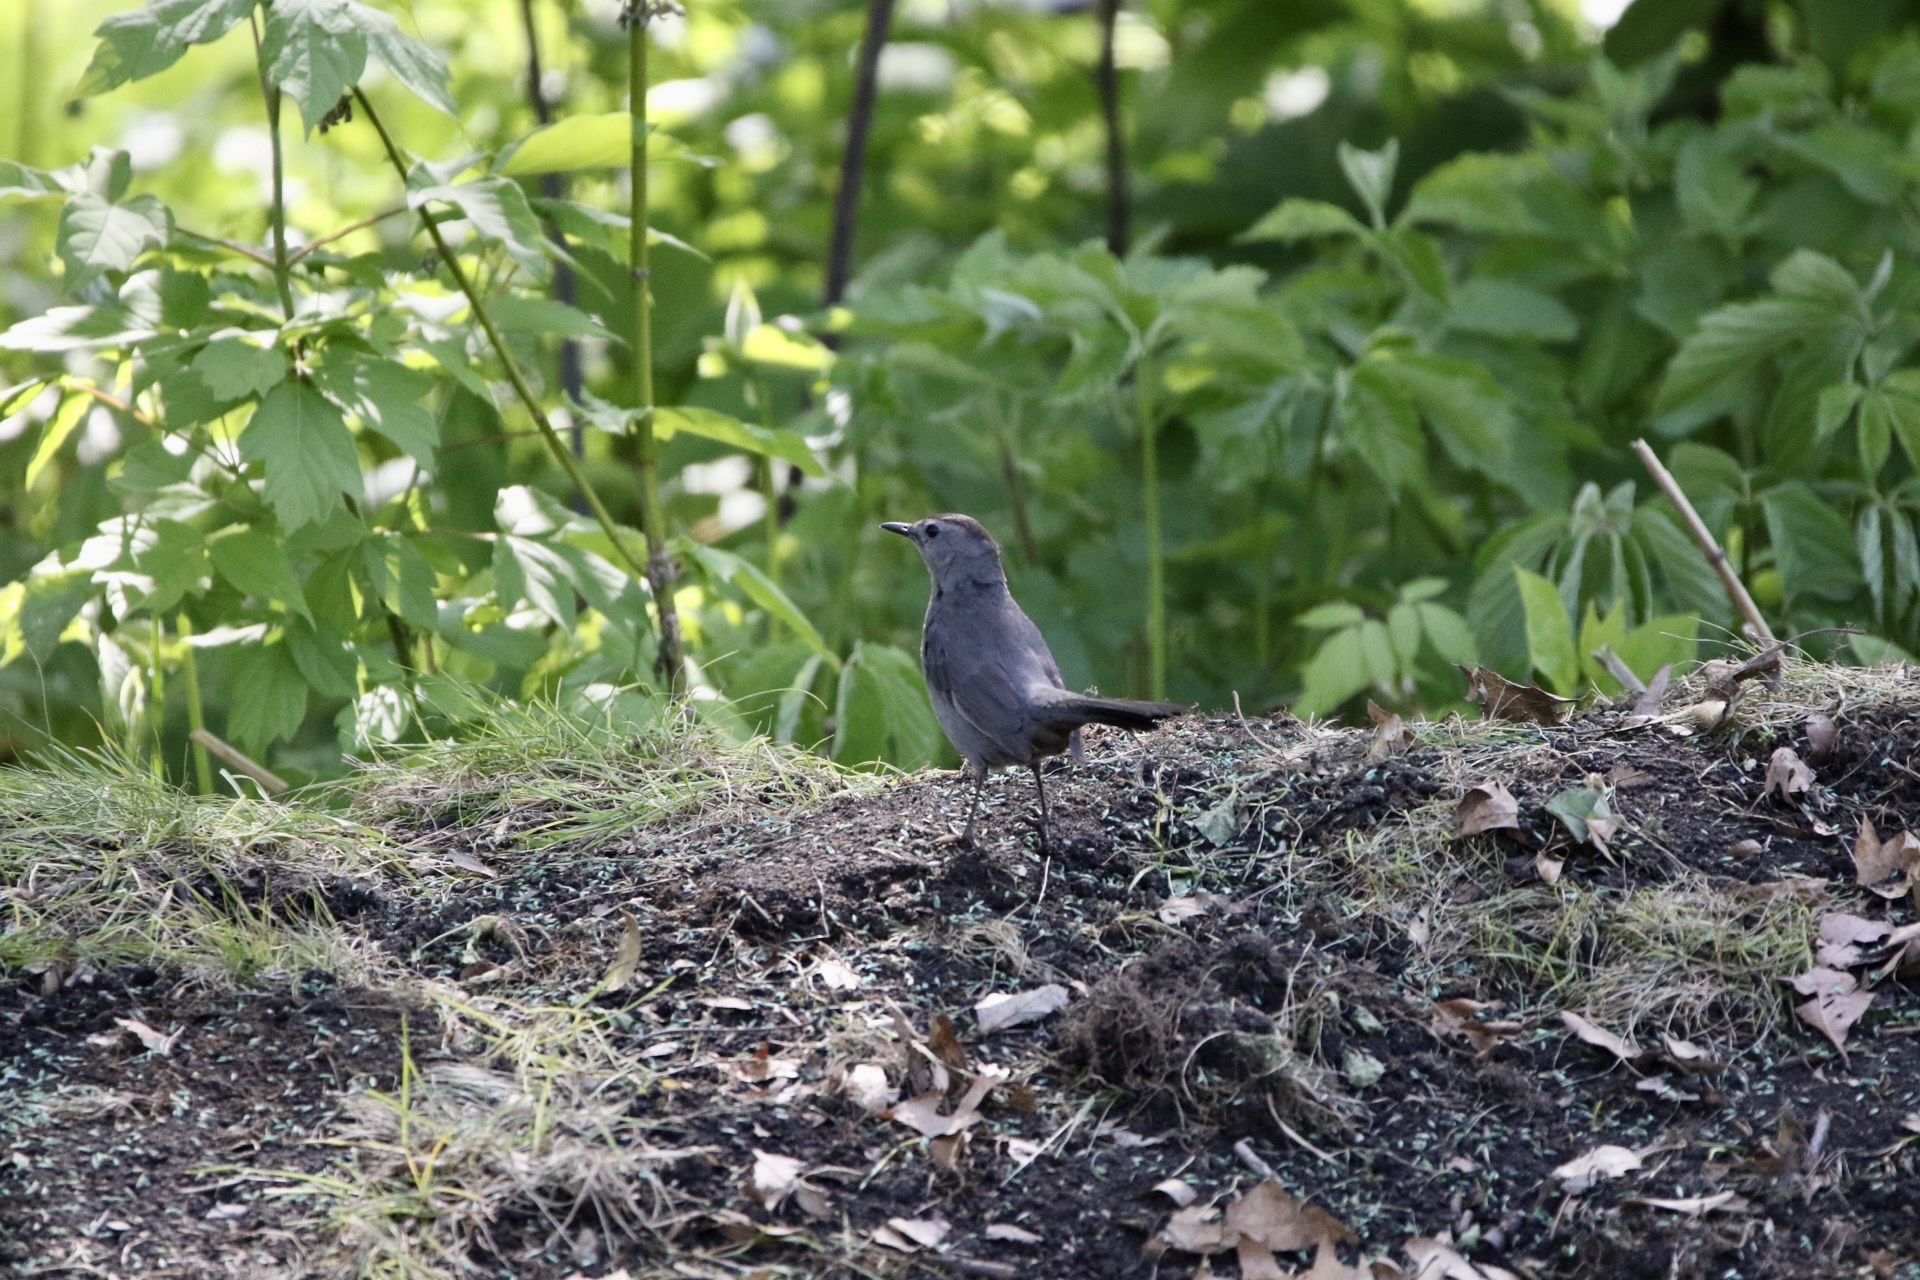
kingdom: Animalia
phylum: Chordata
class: Aves
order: Passeriformes
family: Mimidae
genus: Dumetella
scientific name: Dumetella carolinensis
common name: Gray catbird
